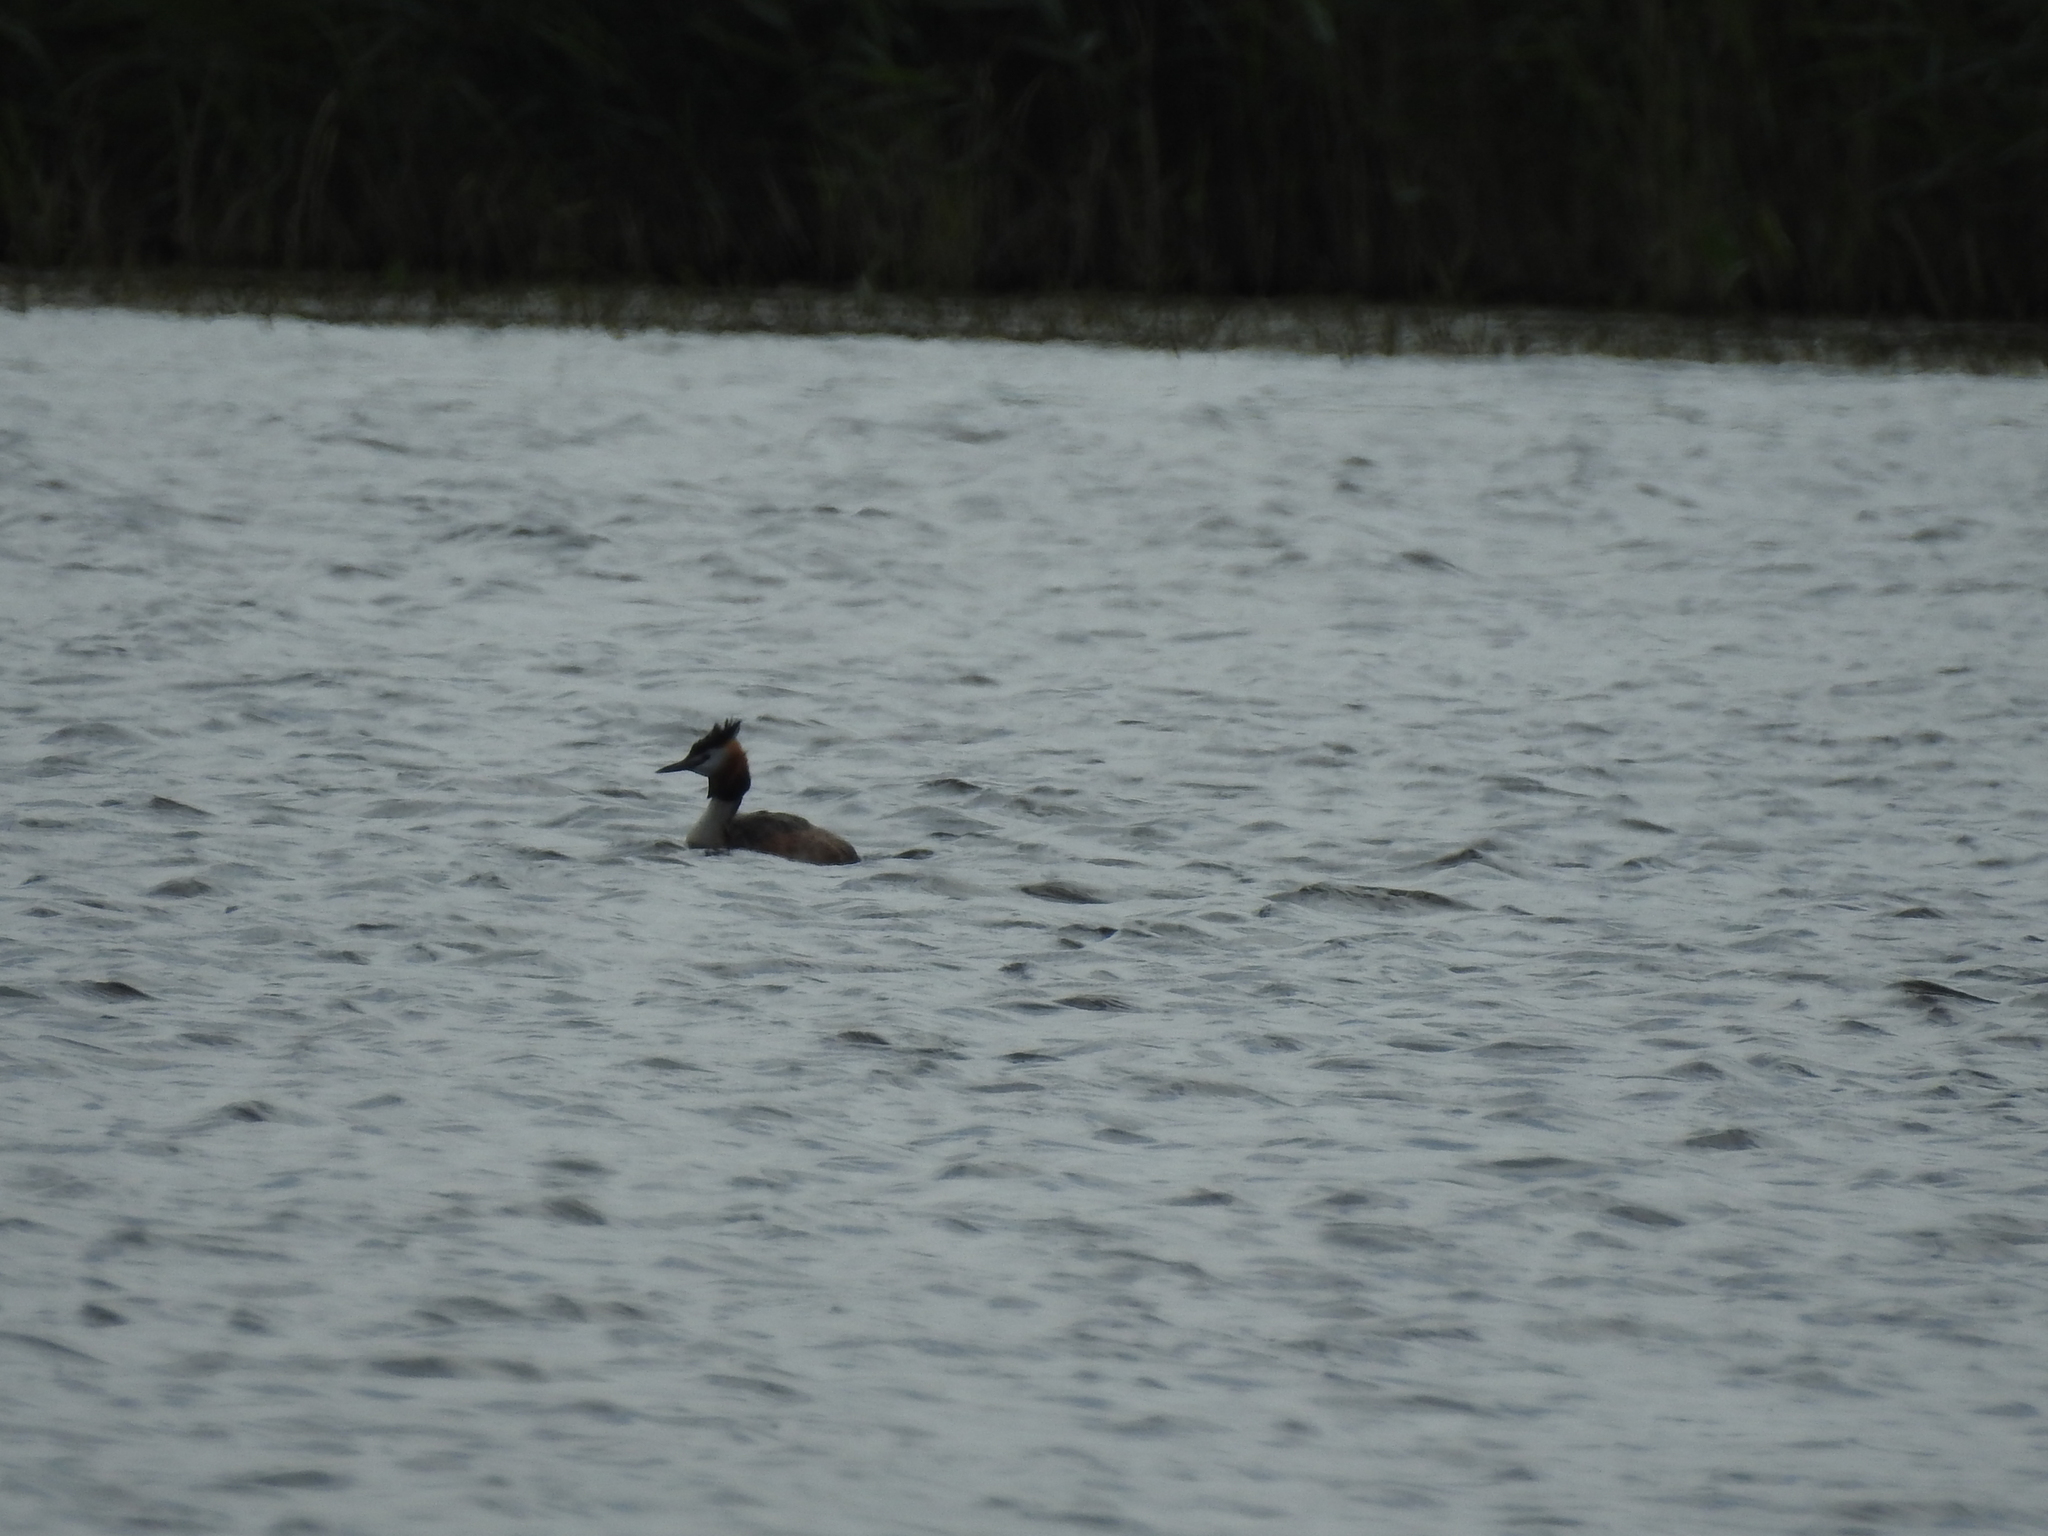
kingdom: Animalia
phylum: Chordata
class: Aves
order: Podicipediformes
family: Podicipedidae
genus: Podiceps
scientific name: Podiceps cristatus
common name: Great crested grebe
